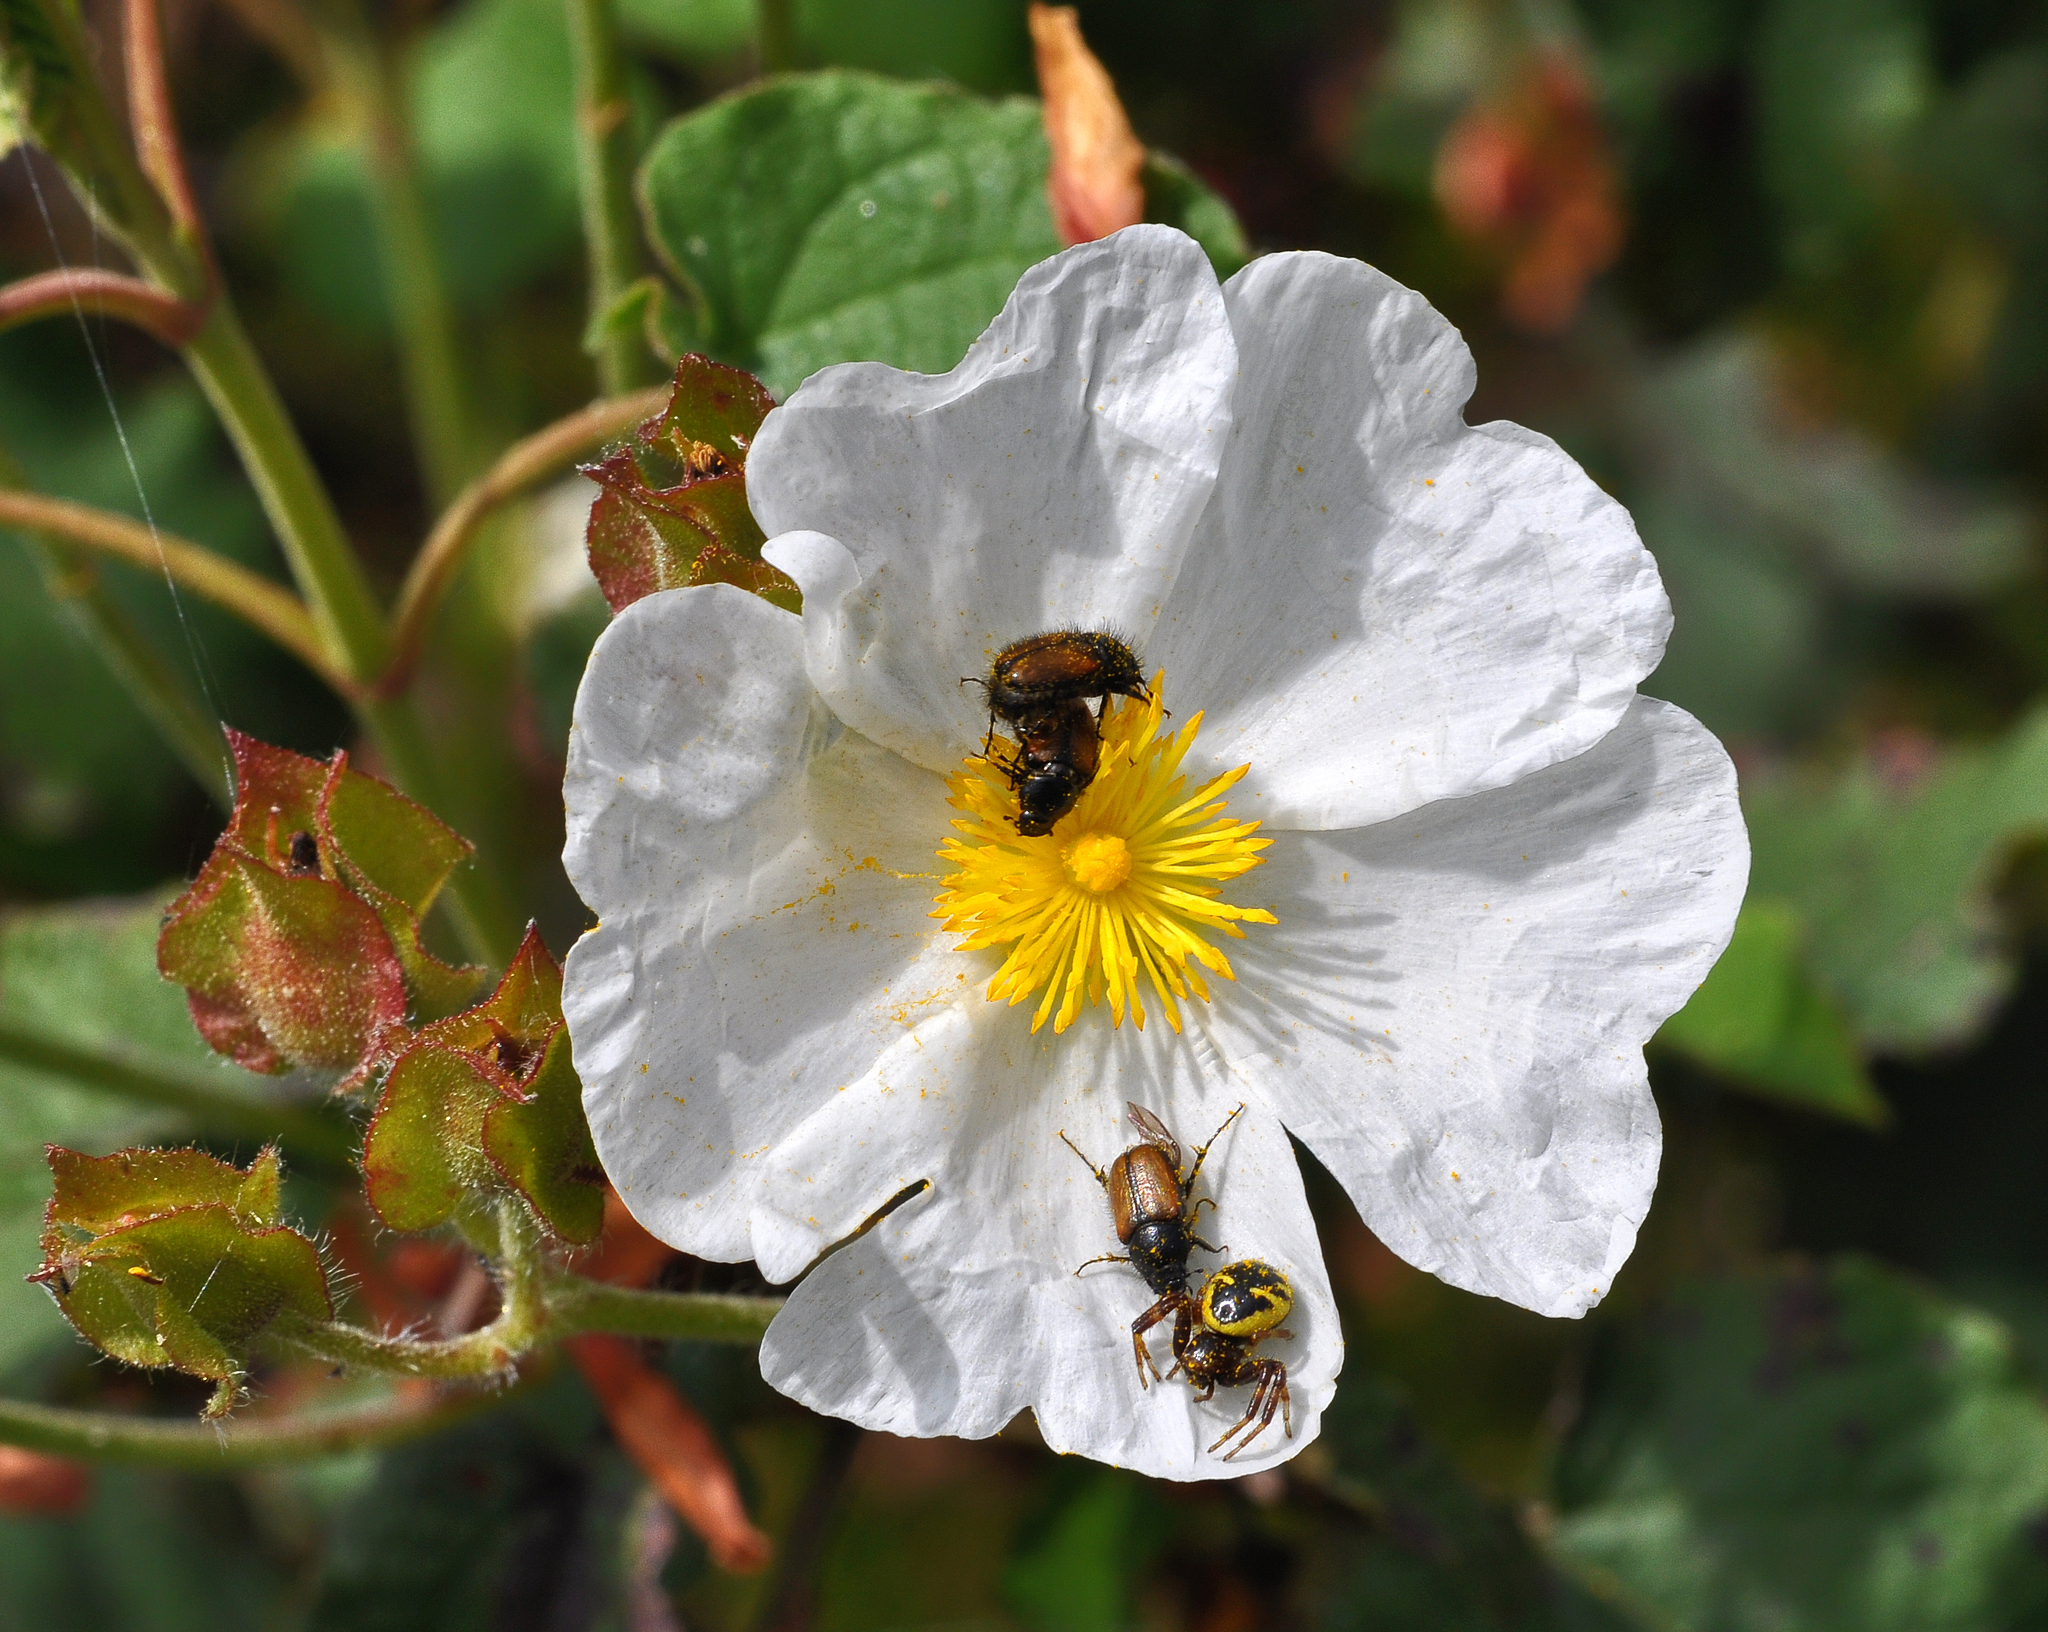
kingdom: Animalia
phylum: Arthropoda
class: Arachnida
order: Araneae
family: Thomisidae
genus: Synema
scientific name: Synema globosum
